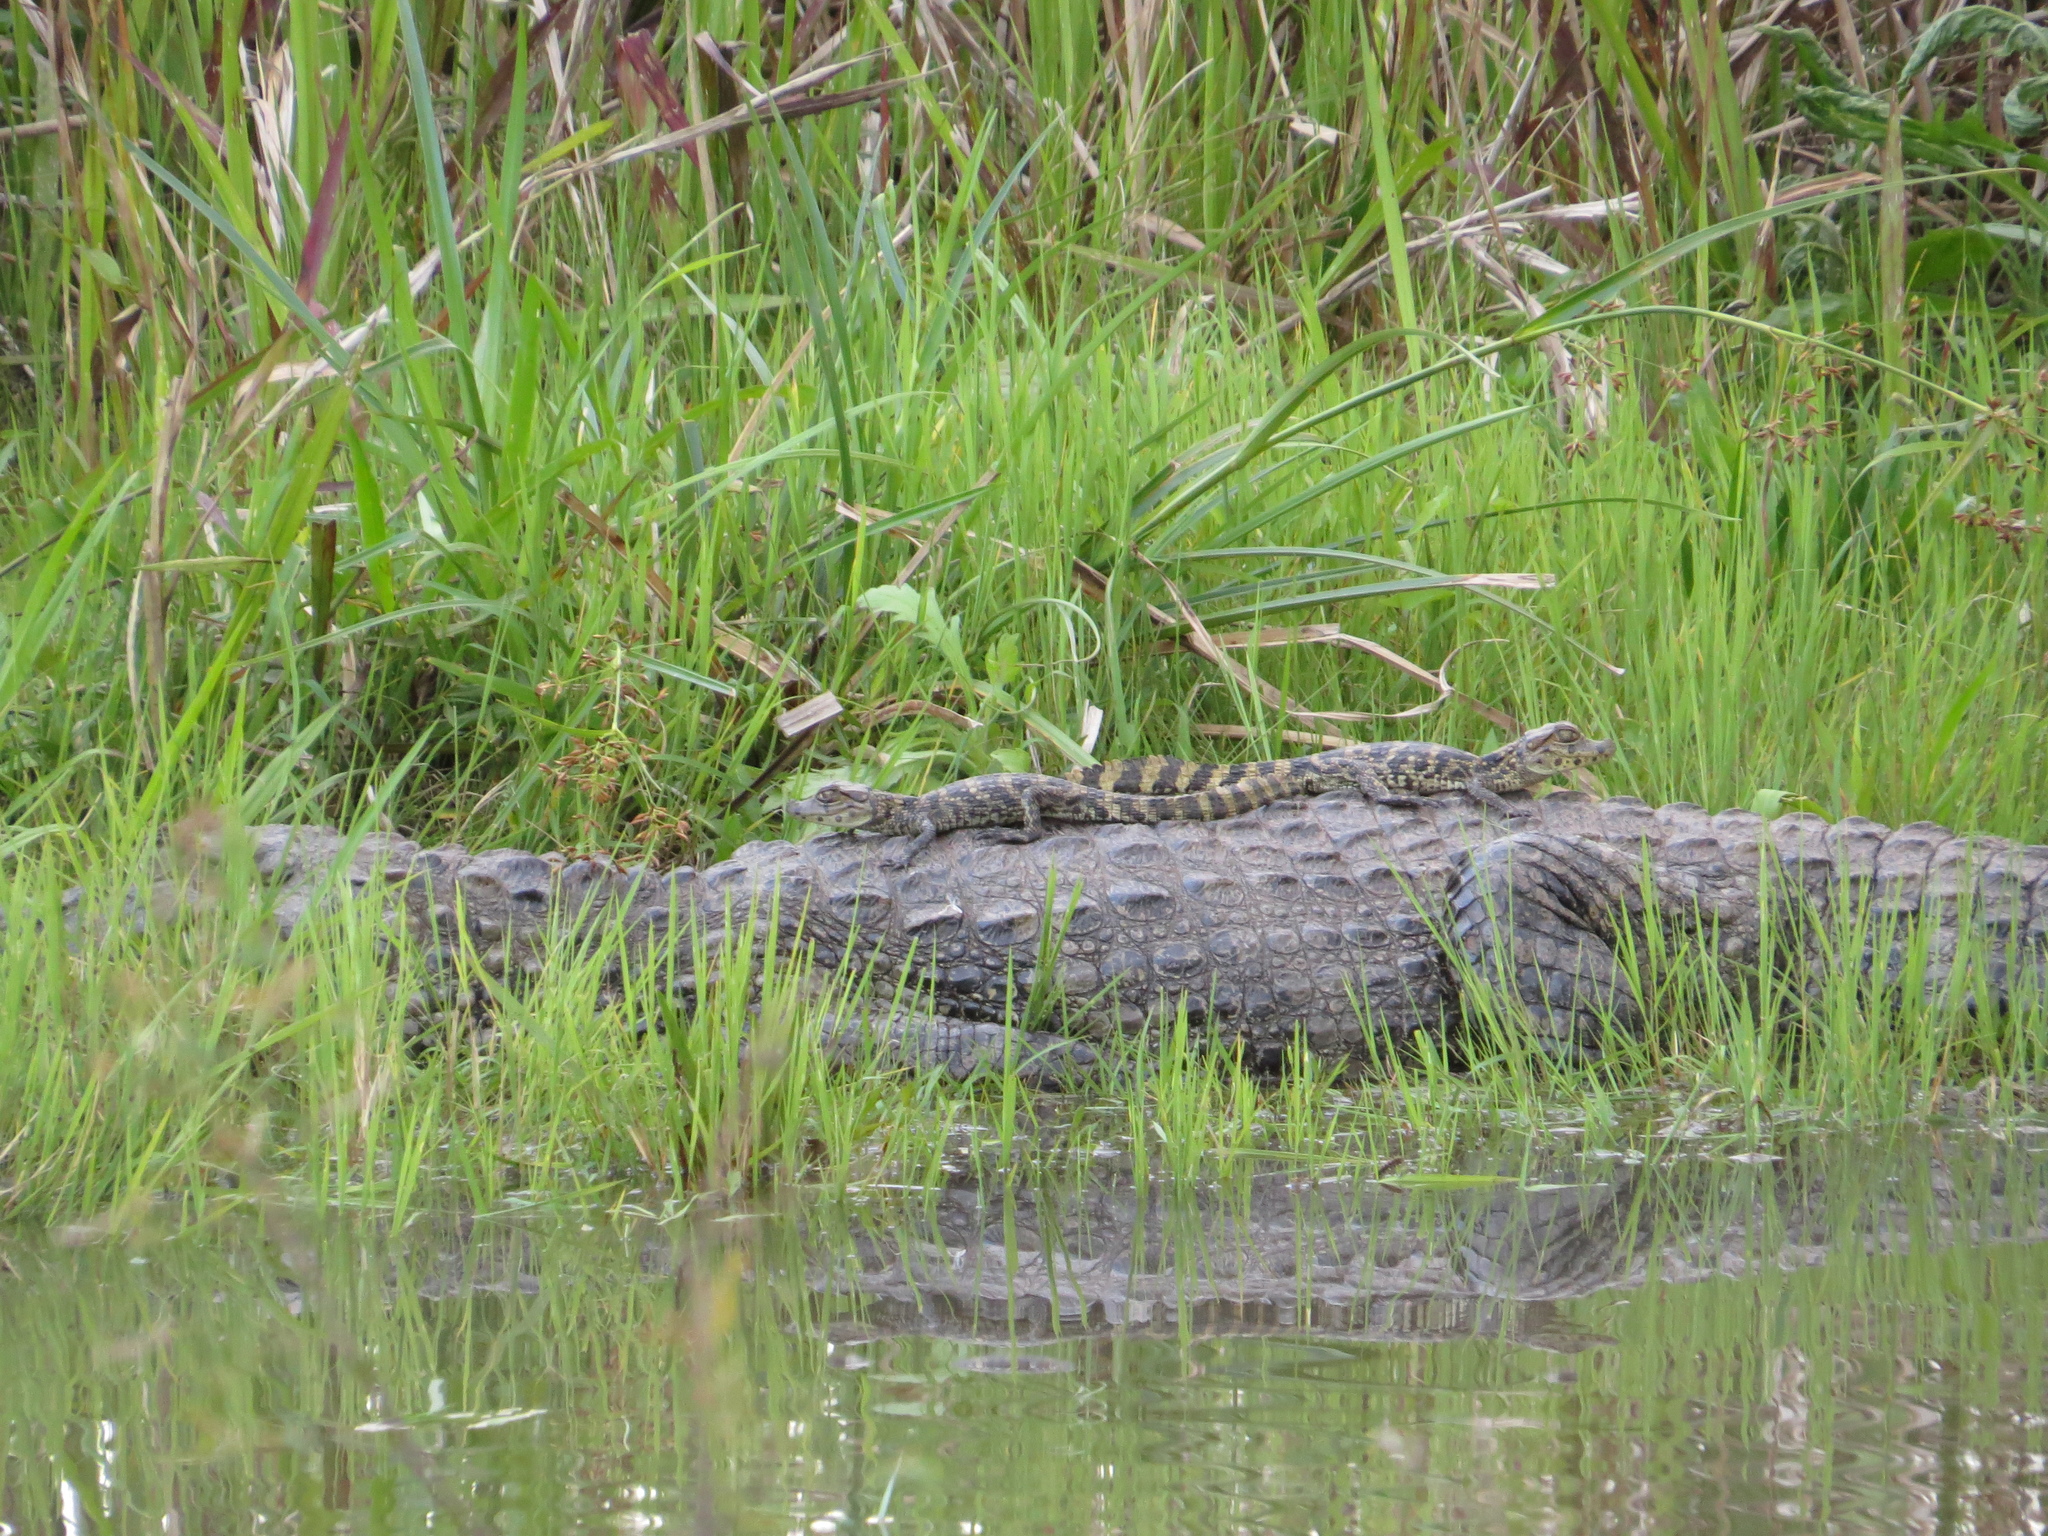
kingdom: Animalia
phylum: Chordata
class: Crocodylia
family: Alligatoridae
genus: Caiman
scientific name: Caiman latirostris
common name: Broad-snouted caiman
